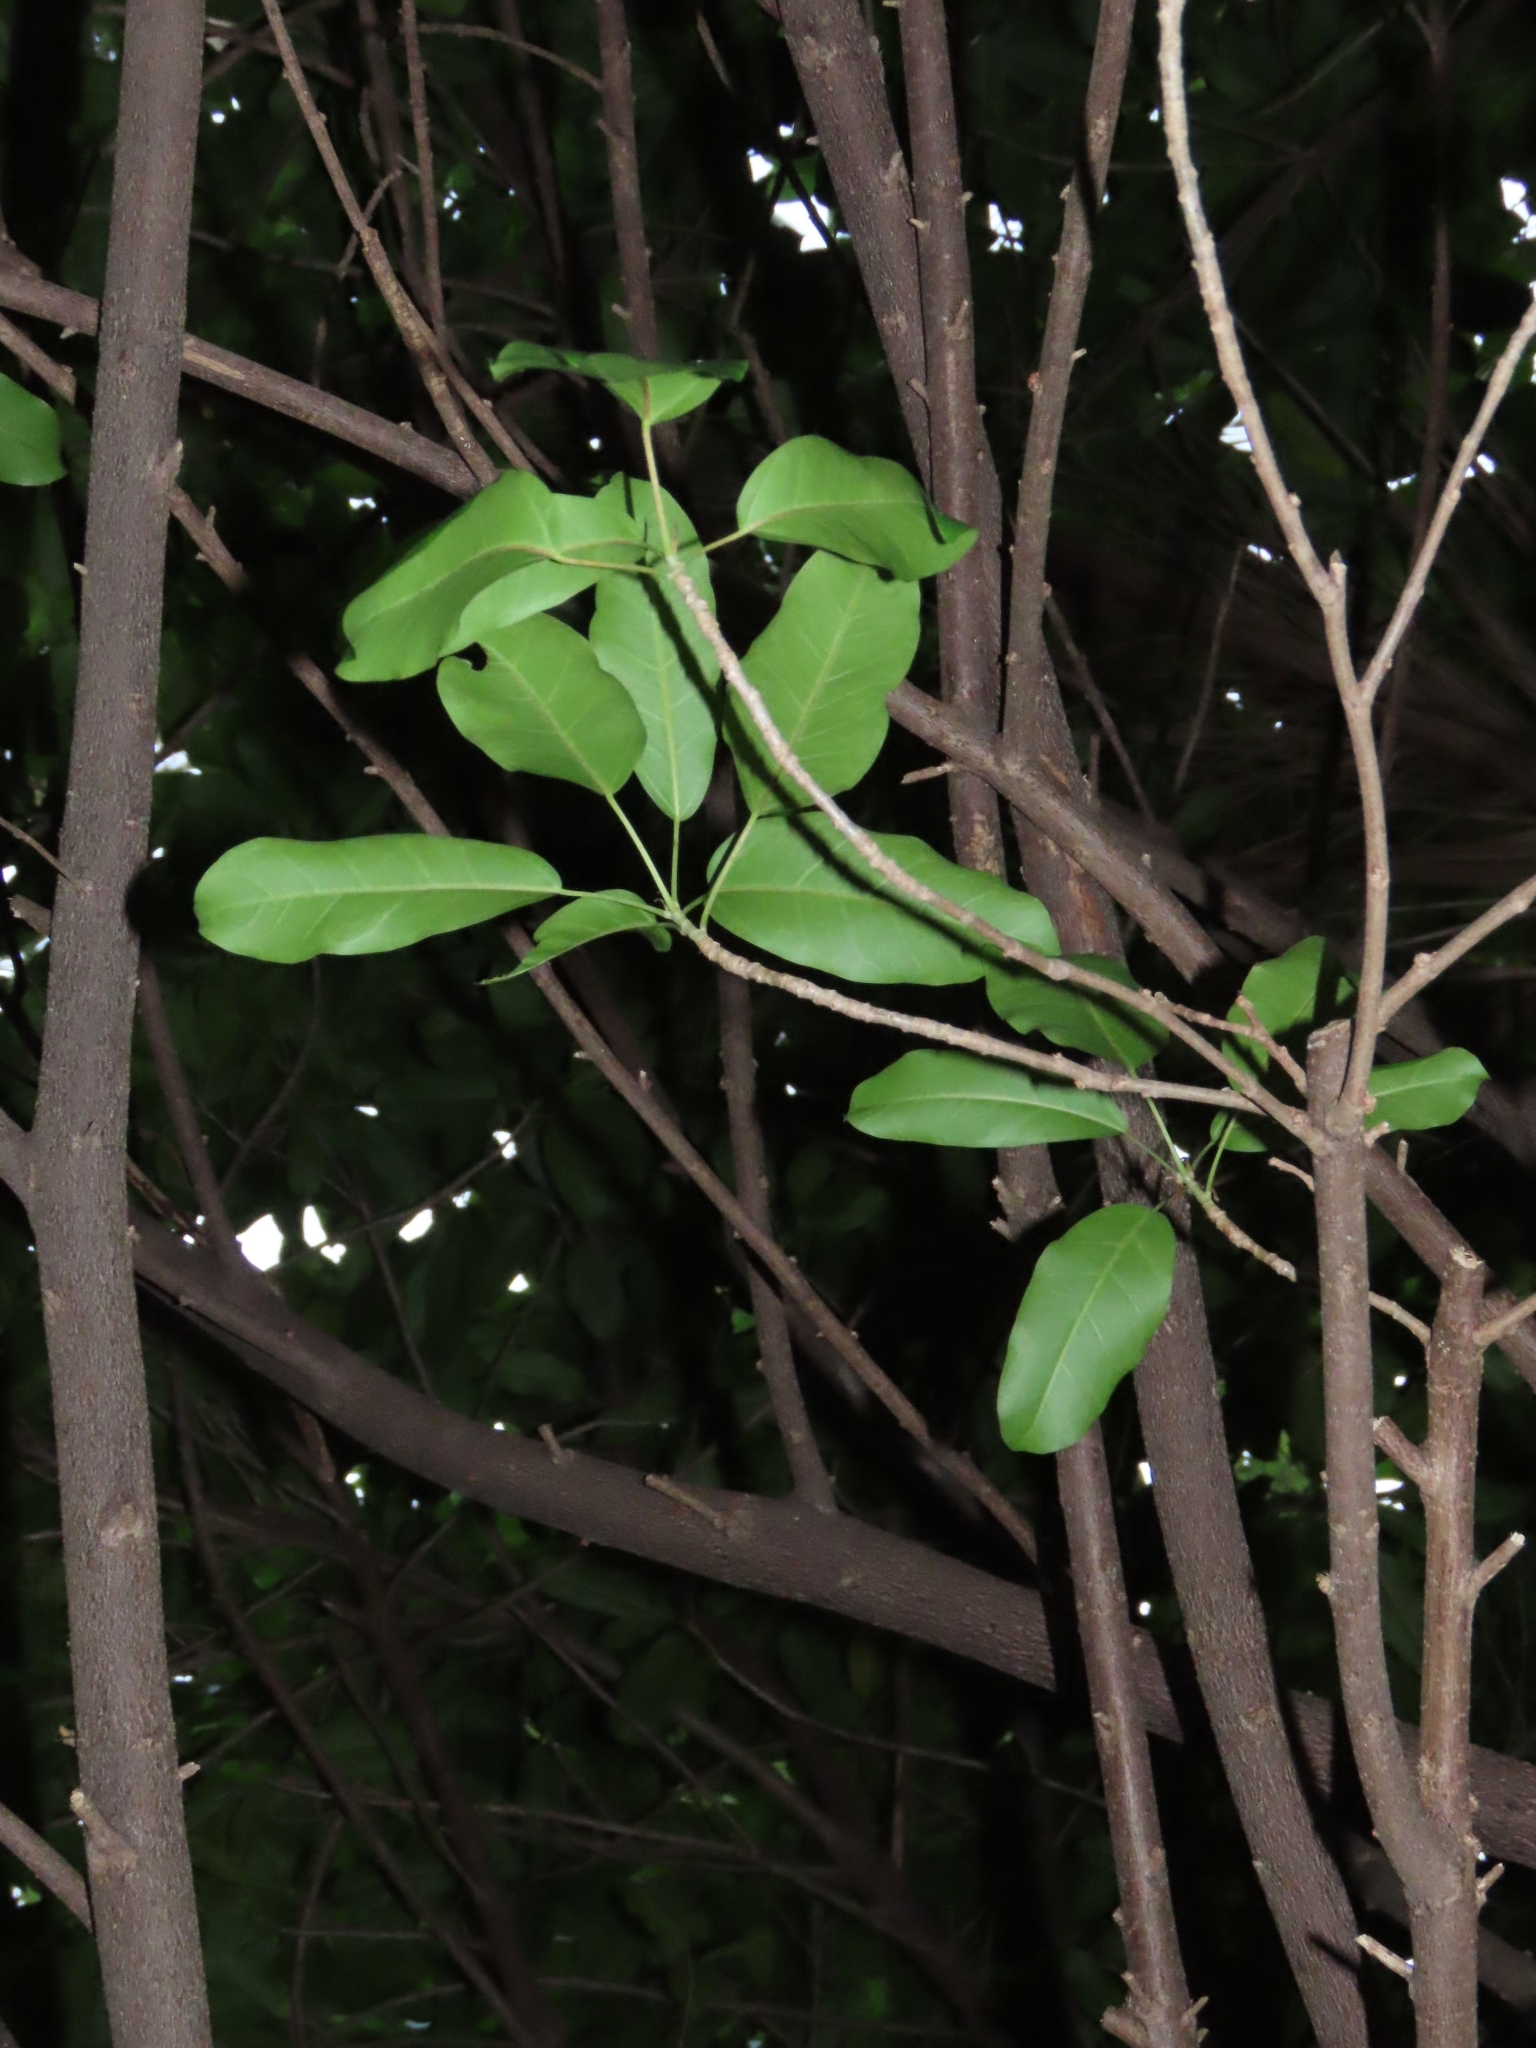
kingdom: Plantae
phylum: Tracheophyta
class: Magnoliopsida
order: Rosales
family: Moraceae
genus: Ficus
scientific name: Ficus subpisocarpa
